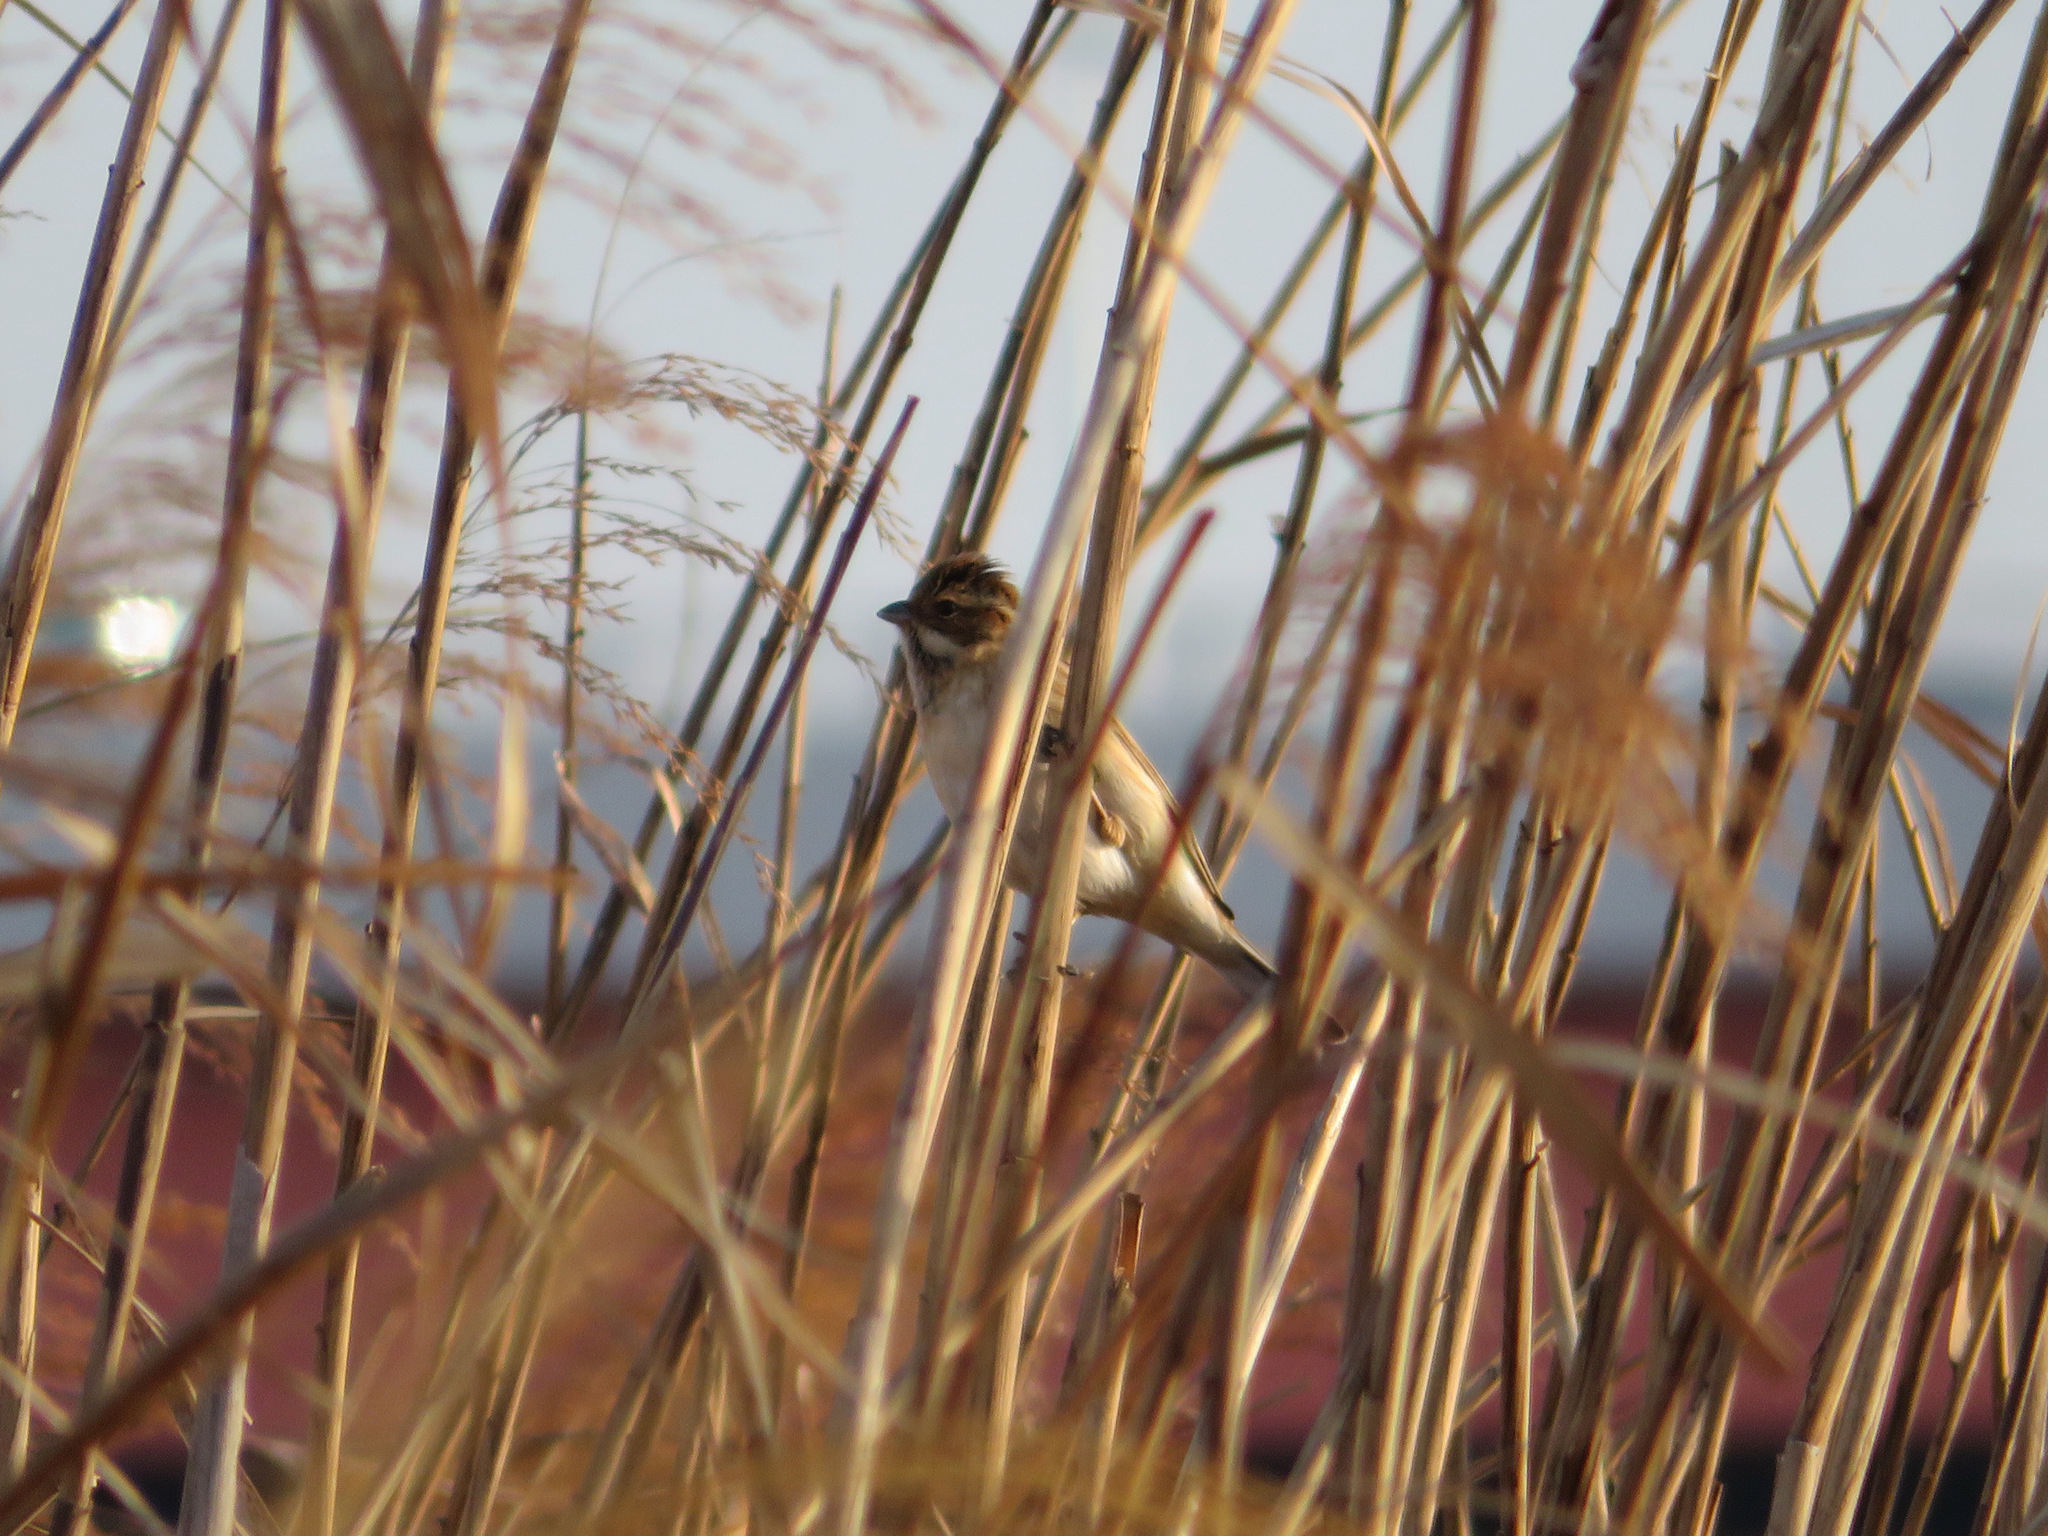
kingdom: Animalia
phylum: Chordata
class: Aves
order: Passeriformes
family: Emberizidae
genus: Emberiza
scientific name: Emberiza schoeniclus
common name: Reed bunting
